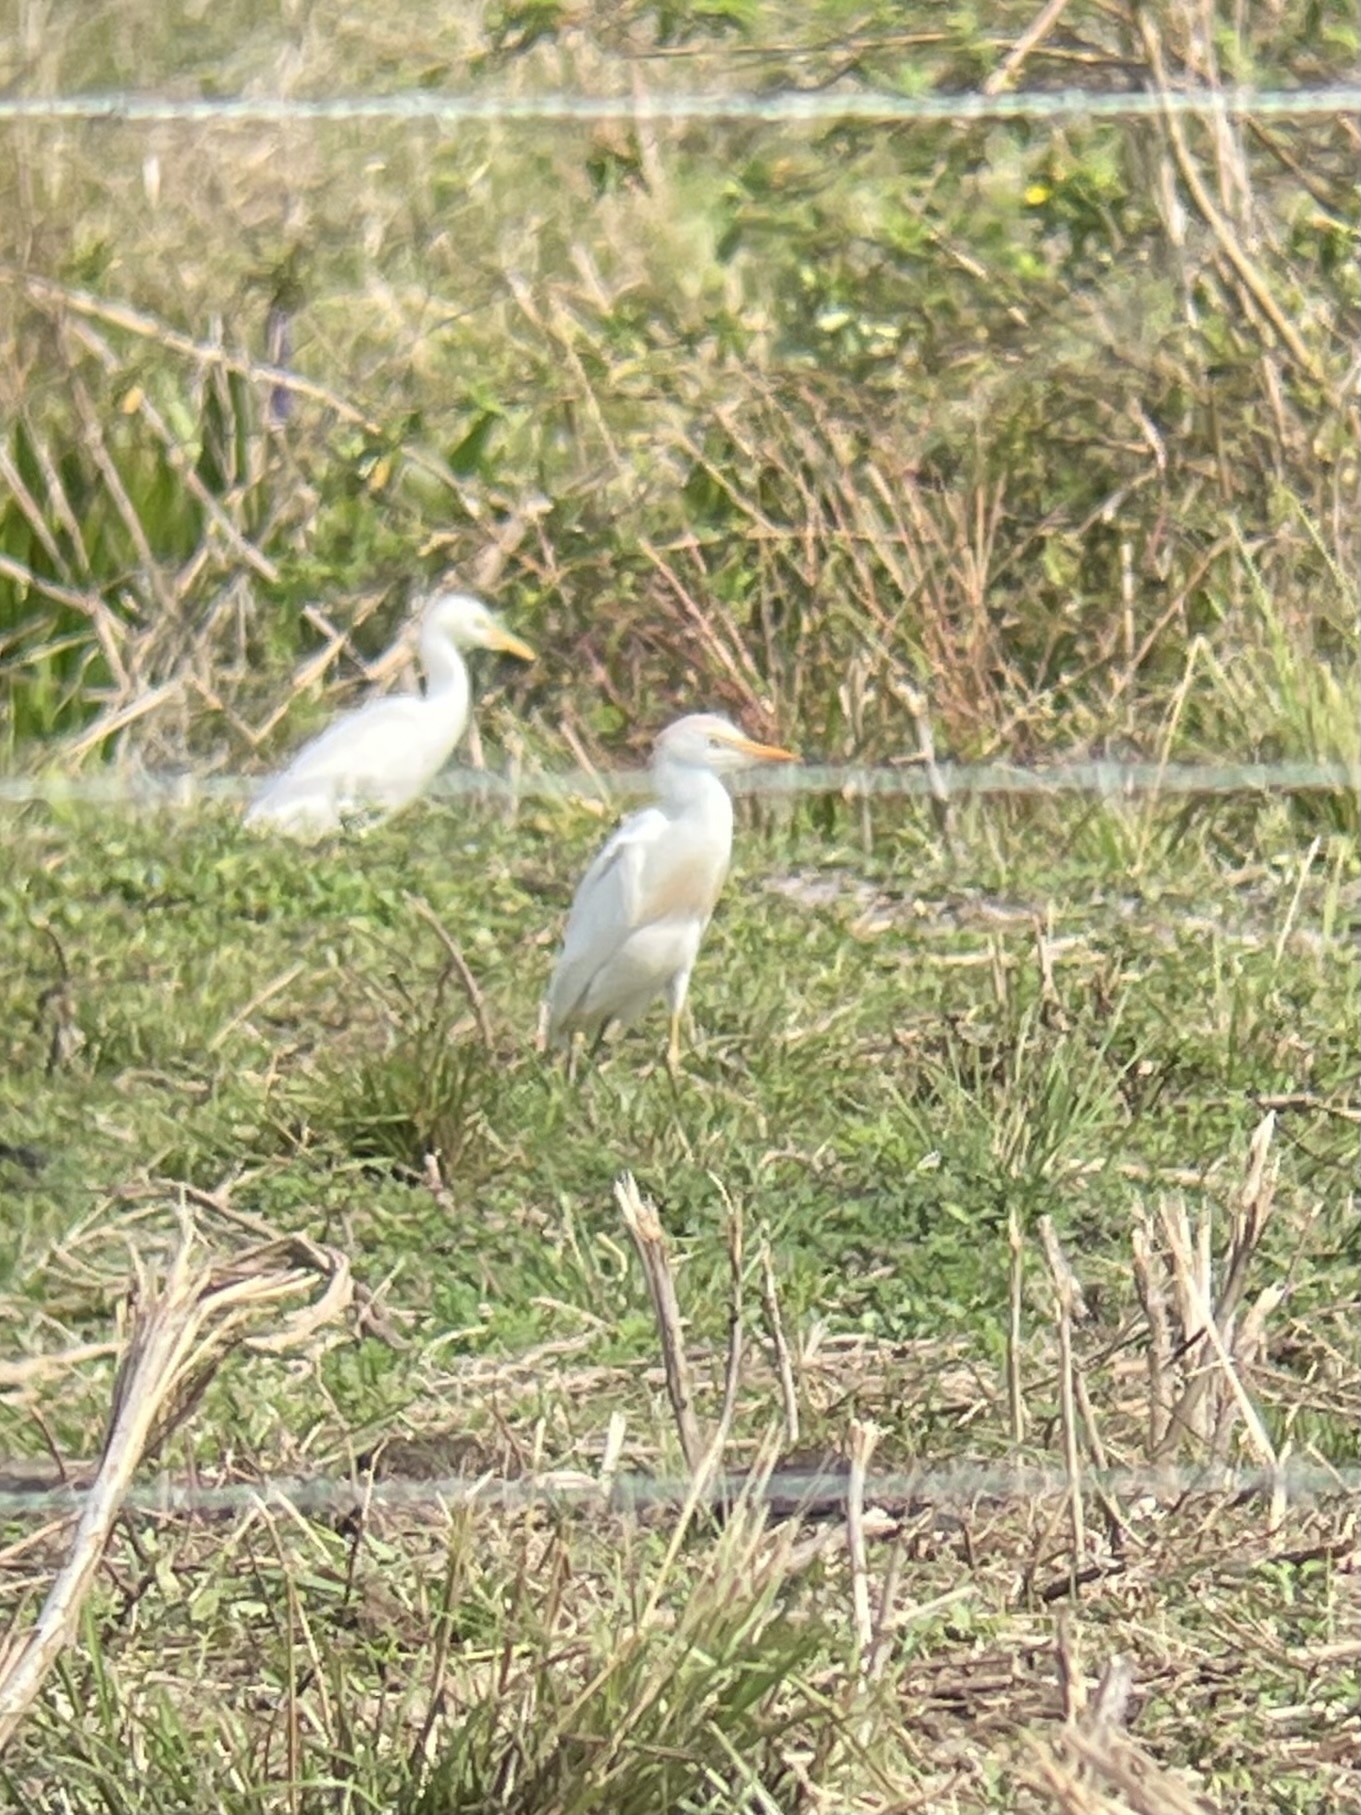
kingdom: Animalia
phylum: Chordata
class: Aves
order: Pelecaniformes
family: Ardeidae
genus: Bubulcus
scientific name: Bubulcus ibis
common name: Cattle egret
